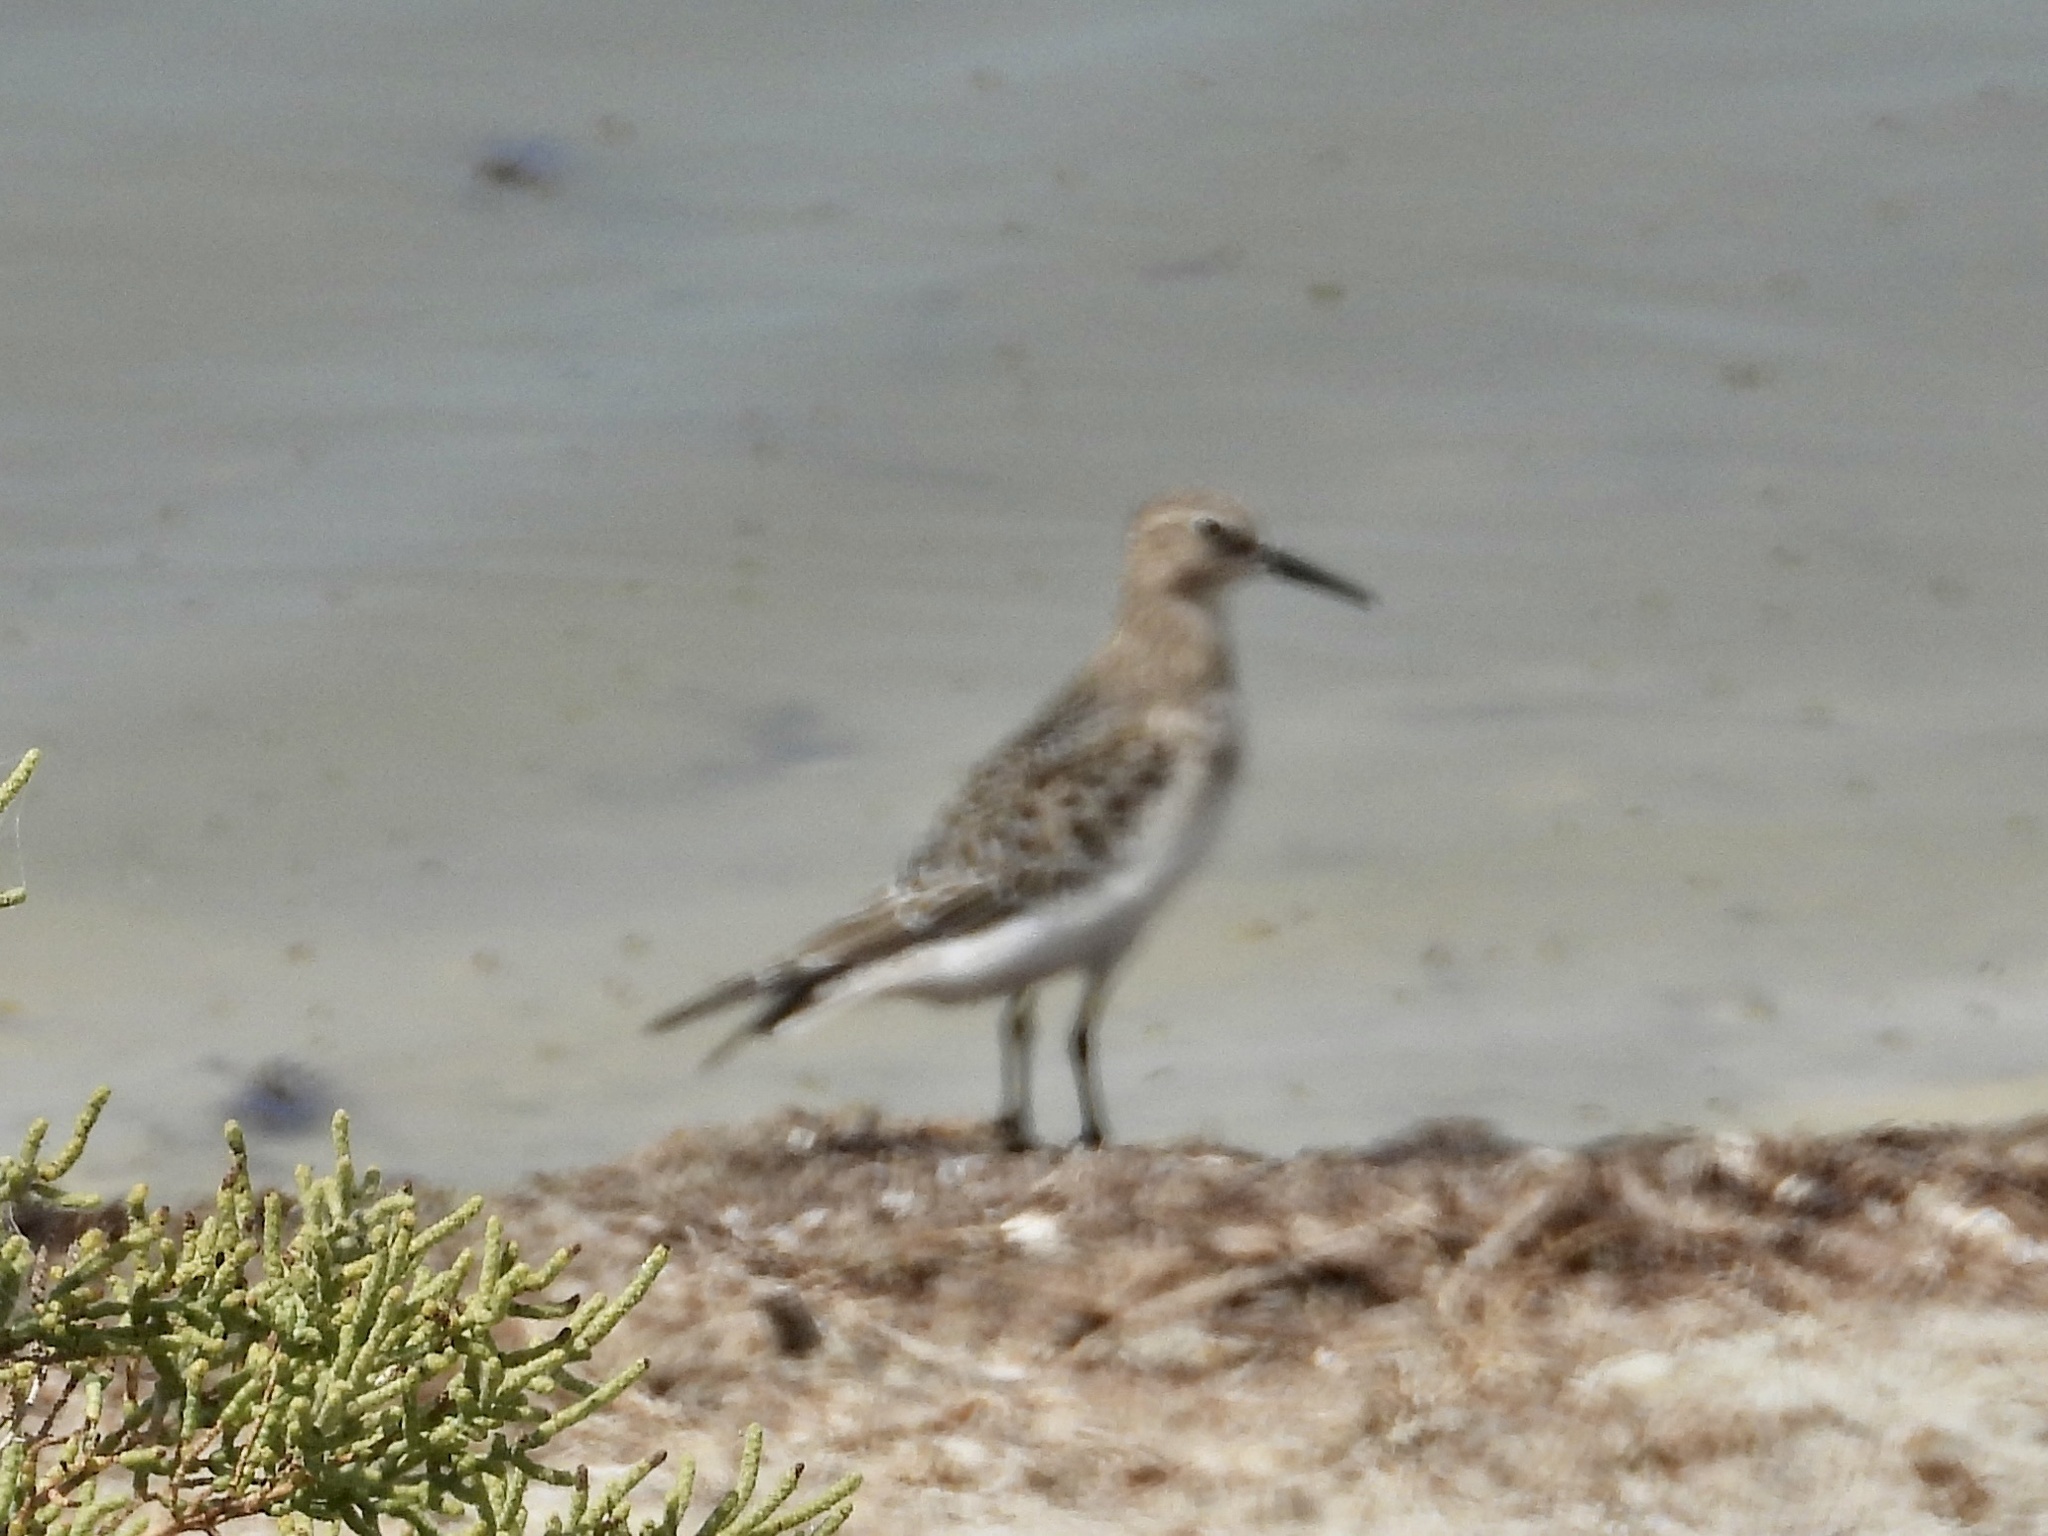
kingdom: Animalia
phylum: Chordata
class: Aves
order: Charadriiformes
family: Scolopacidae
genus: Calidris
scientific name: Calidris bairdii
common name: Baird's sandpiper
